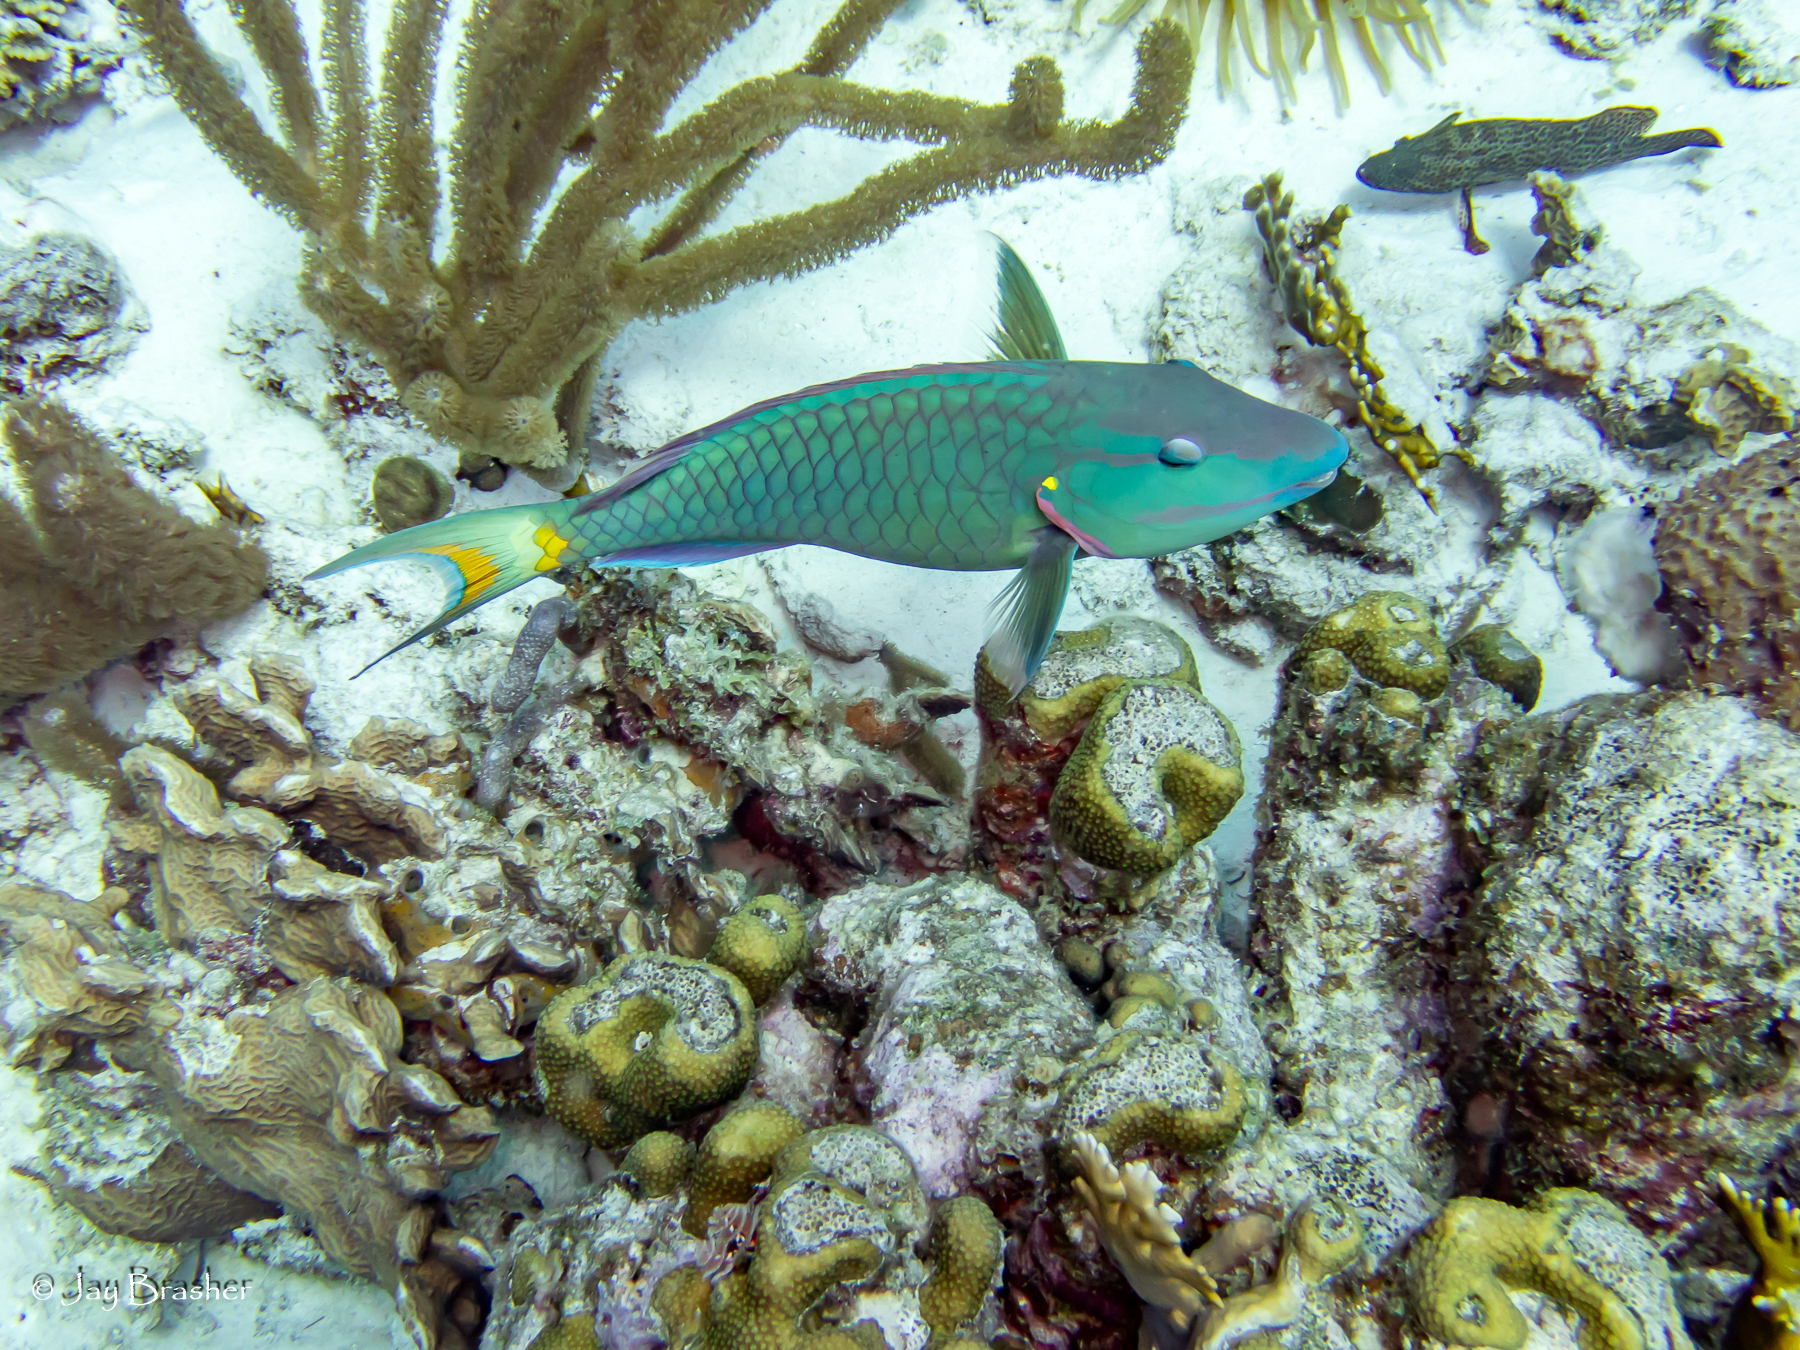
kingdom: Animalia
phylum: Cnidaria
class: Anthozoa
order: Scleractinia
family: Agariciidae
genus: Agaricia
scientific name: Agaricia agaricites
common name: Lettuce coral
